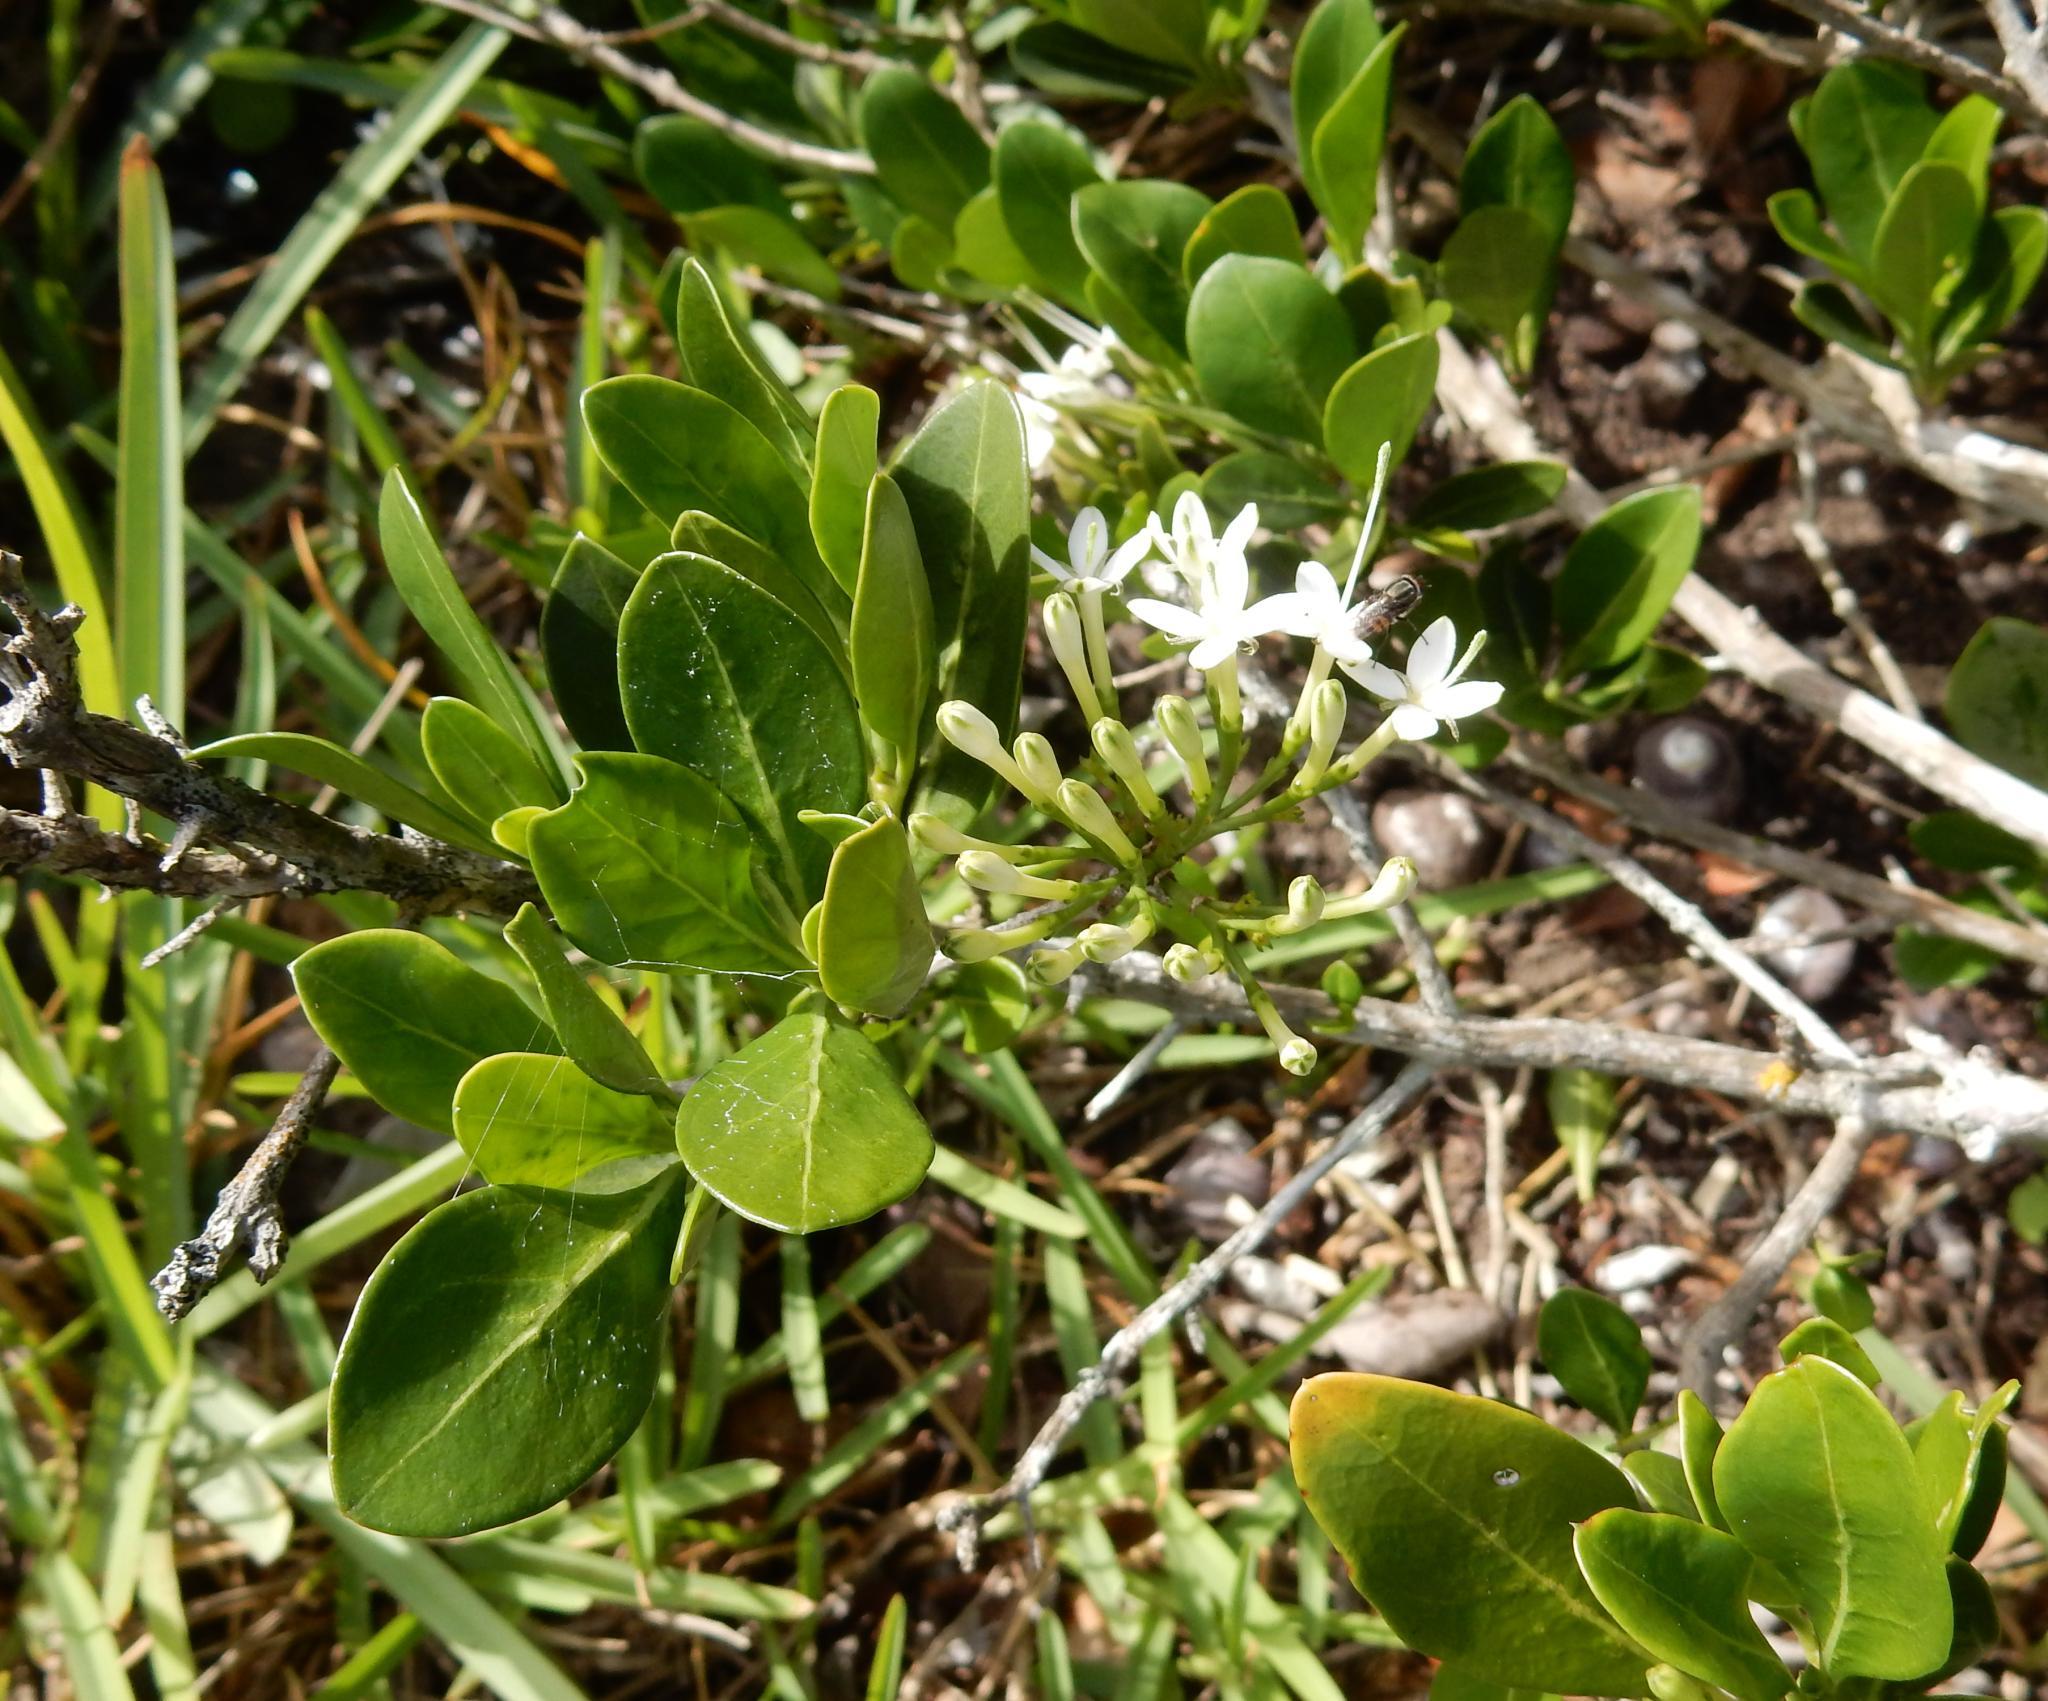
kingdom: Plantae
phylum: Tracheophyta
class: Magnoliopsida
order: Gentianales
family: Rubiaceae
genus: Pavetta
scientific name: Pavetta revoluta
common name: Dune brides-bush
